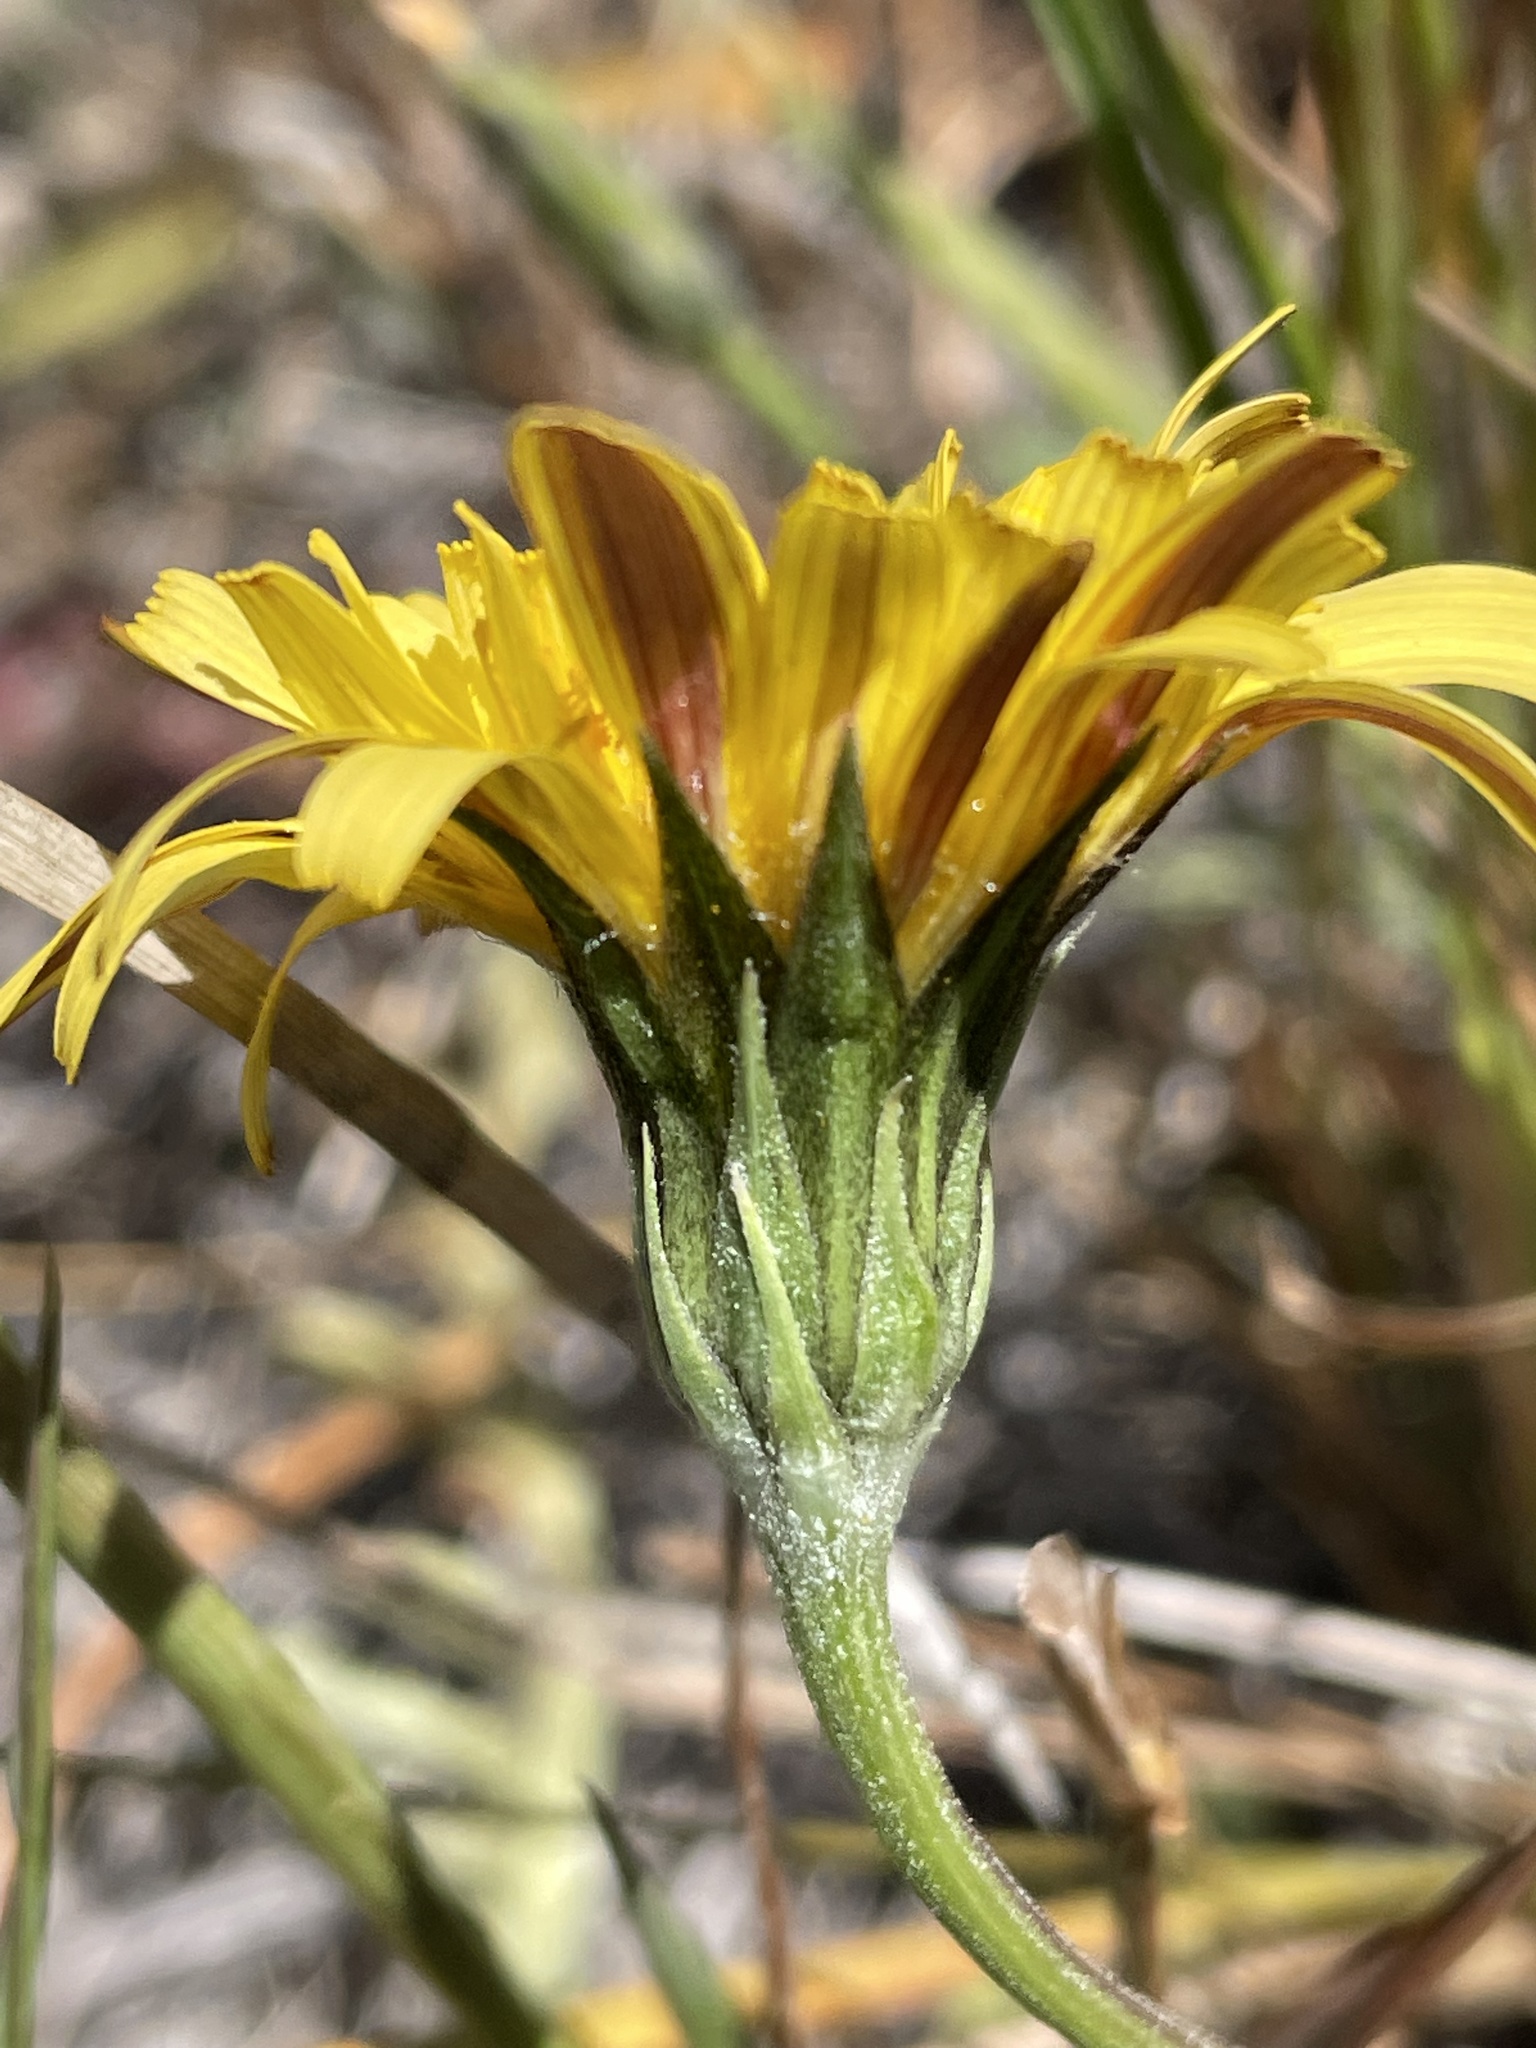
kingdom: Plantae
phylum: Tracheophyta
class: Magnoliopsida
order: Asterales
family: Asteraceae
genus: Microseris
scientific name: Microseris paludosa
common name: Marsh silverpuffs
